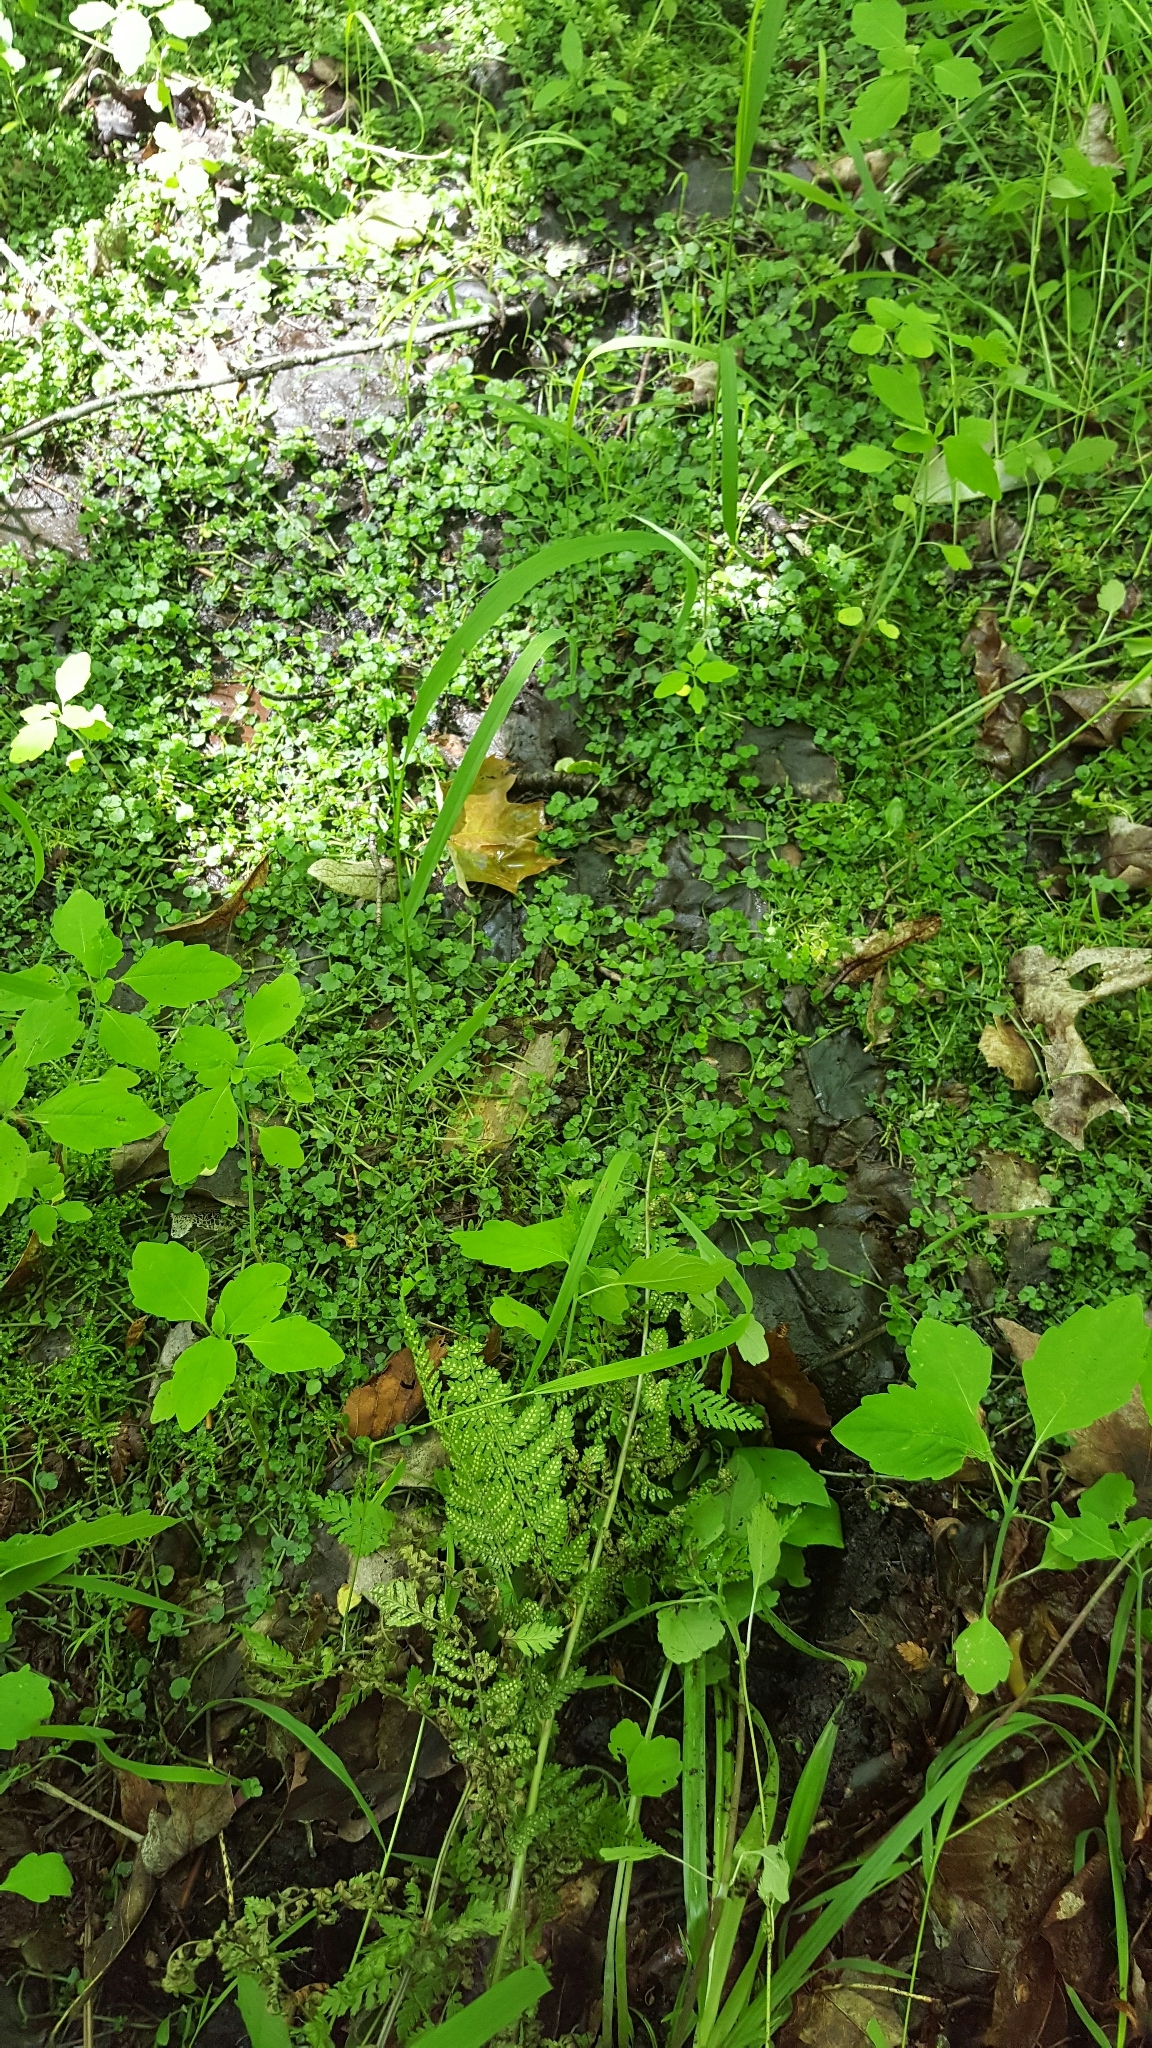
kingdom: Plantae
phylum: Tracheophyta
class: Magnoliopsida
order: Saxifragales
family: Saxifragaceae
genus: Chrysosplenium
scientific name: Chrysosplenium americanum
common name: American golden-saxifrage
